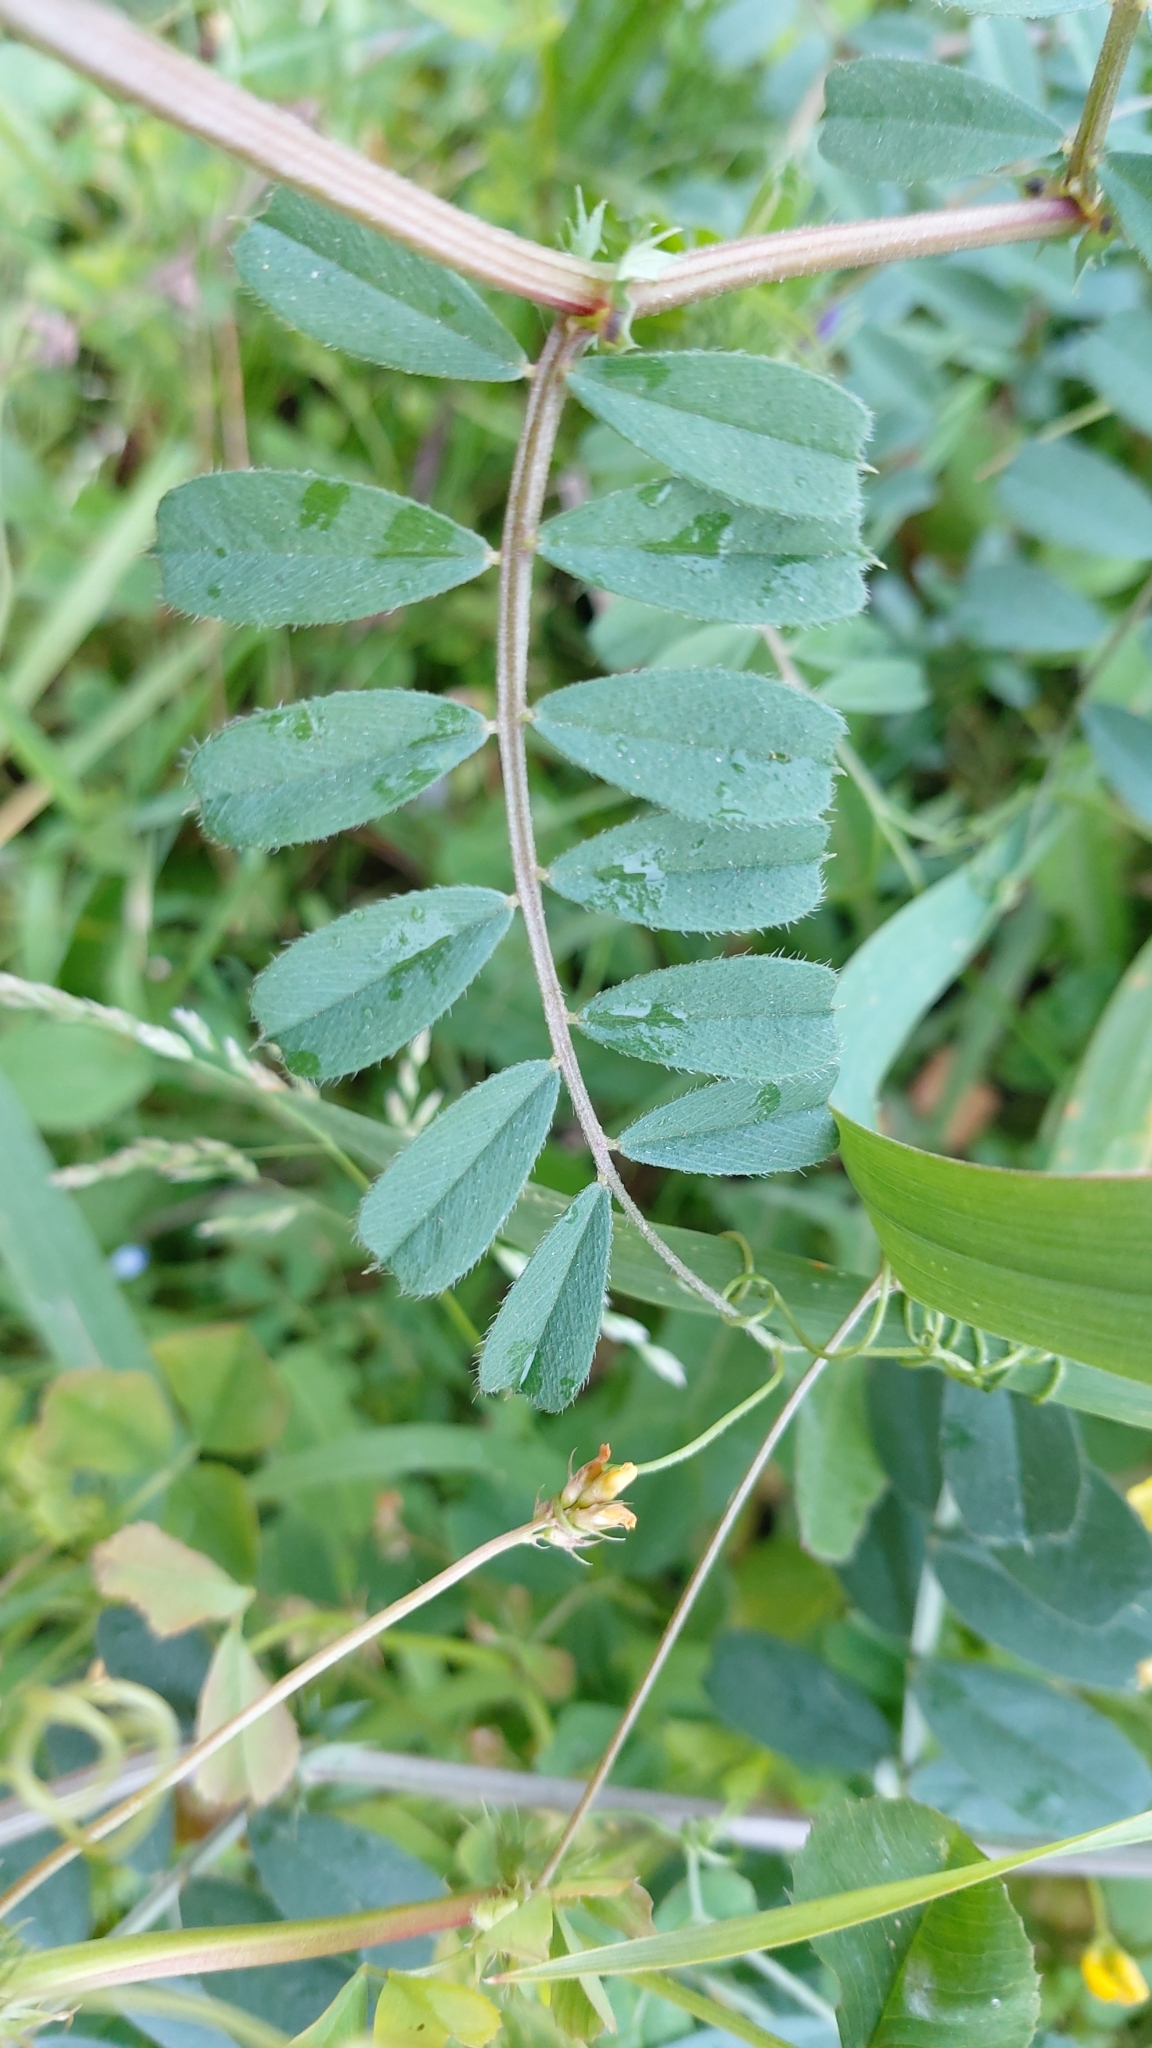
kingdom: Plantae
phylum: Tracheophyta
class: Magnoliopsida
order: Fabales
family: Fabaceae
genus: Vicia
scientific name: Vicia sativa
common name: Garden vetch
